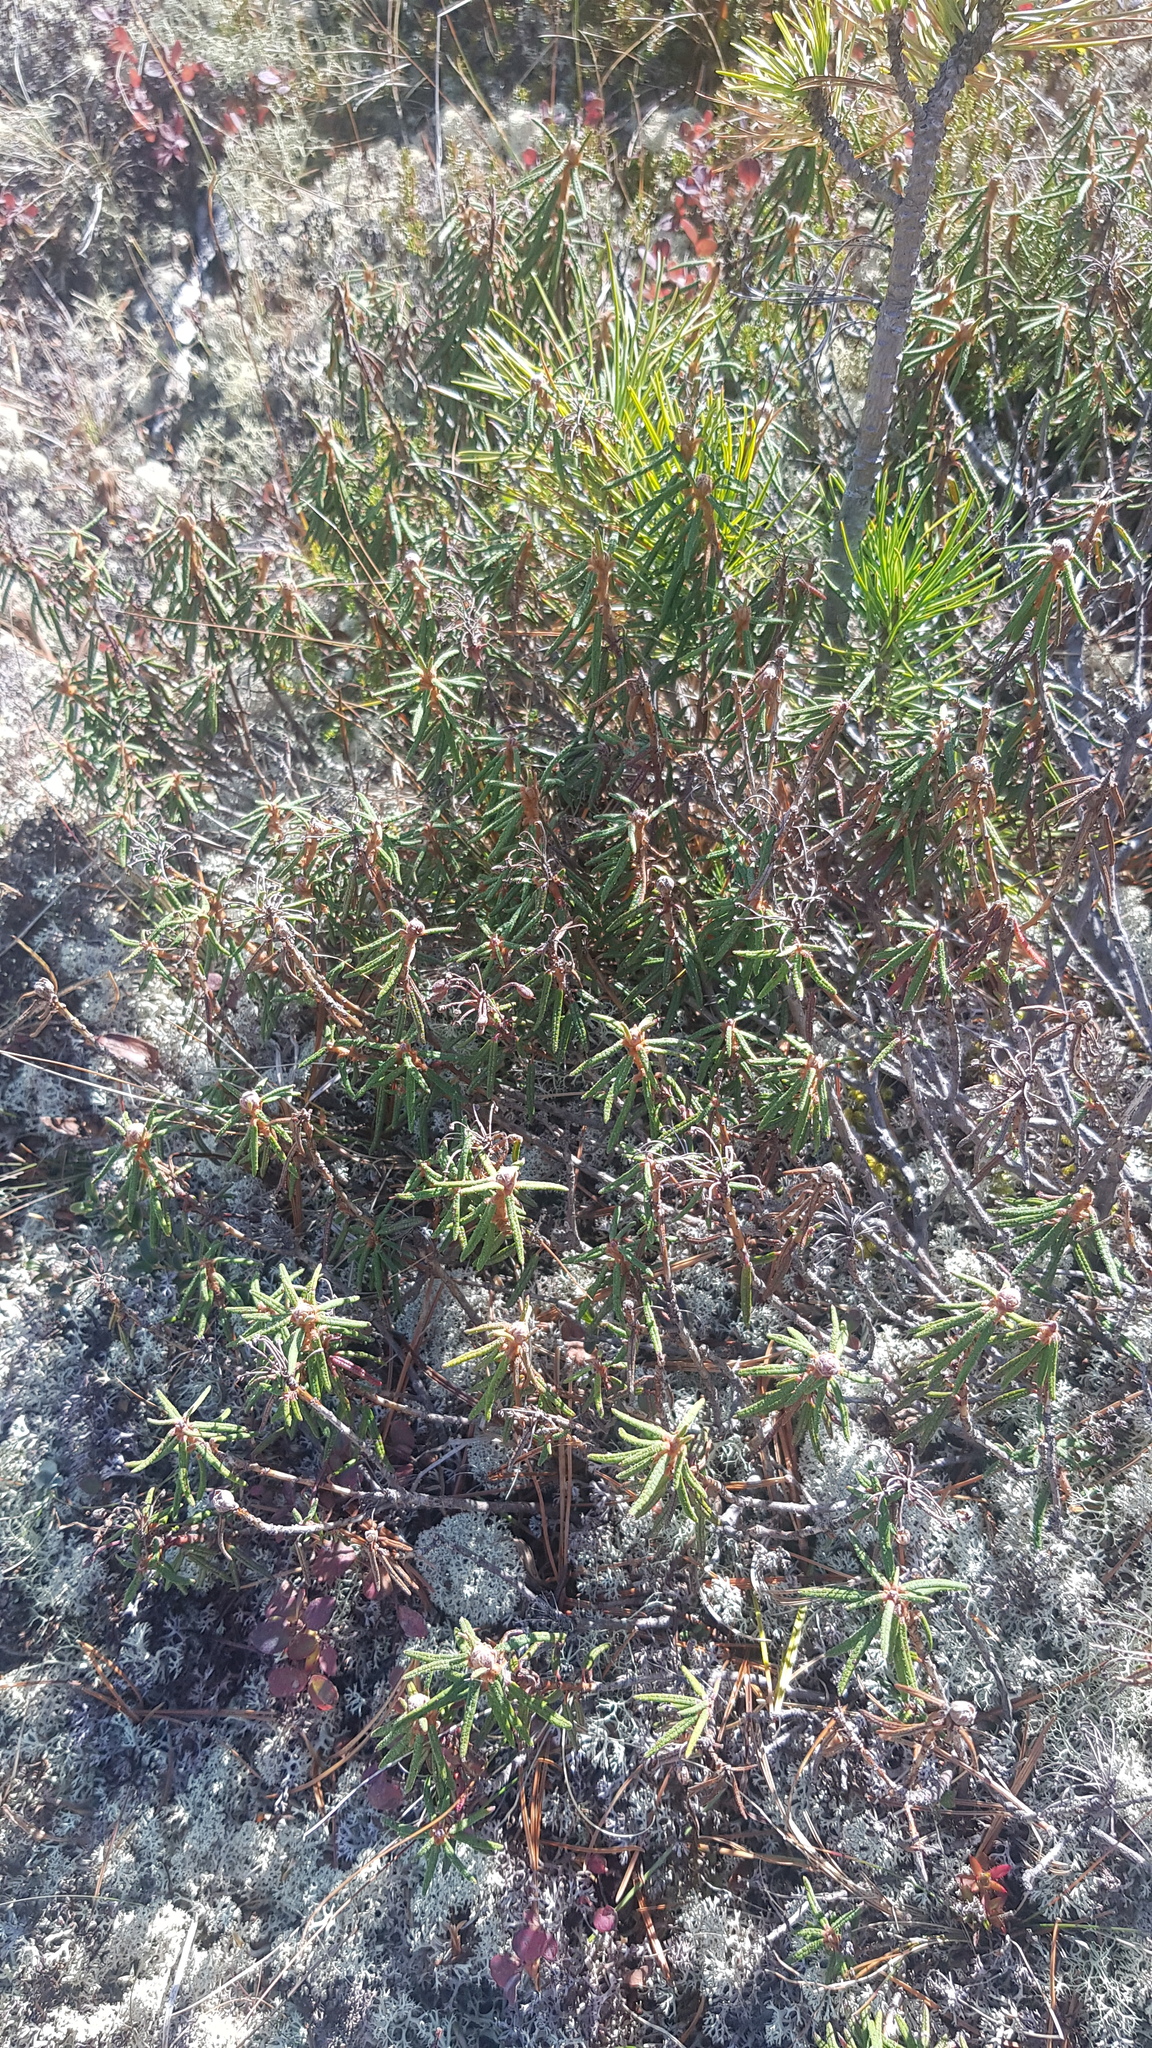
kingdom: Plantae
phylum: Tracheophyta
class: Magnoliopsida
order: Ericales
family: Ericaceae
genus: Rhododendron
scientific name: Rhododendron tomentosum
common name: Marsh labrador tea
